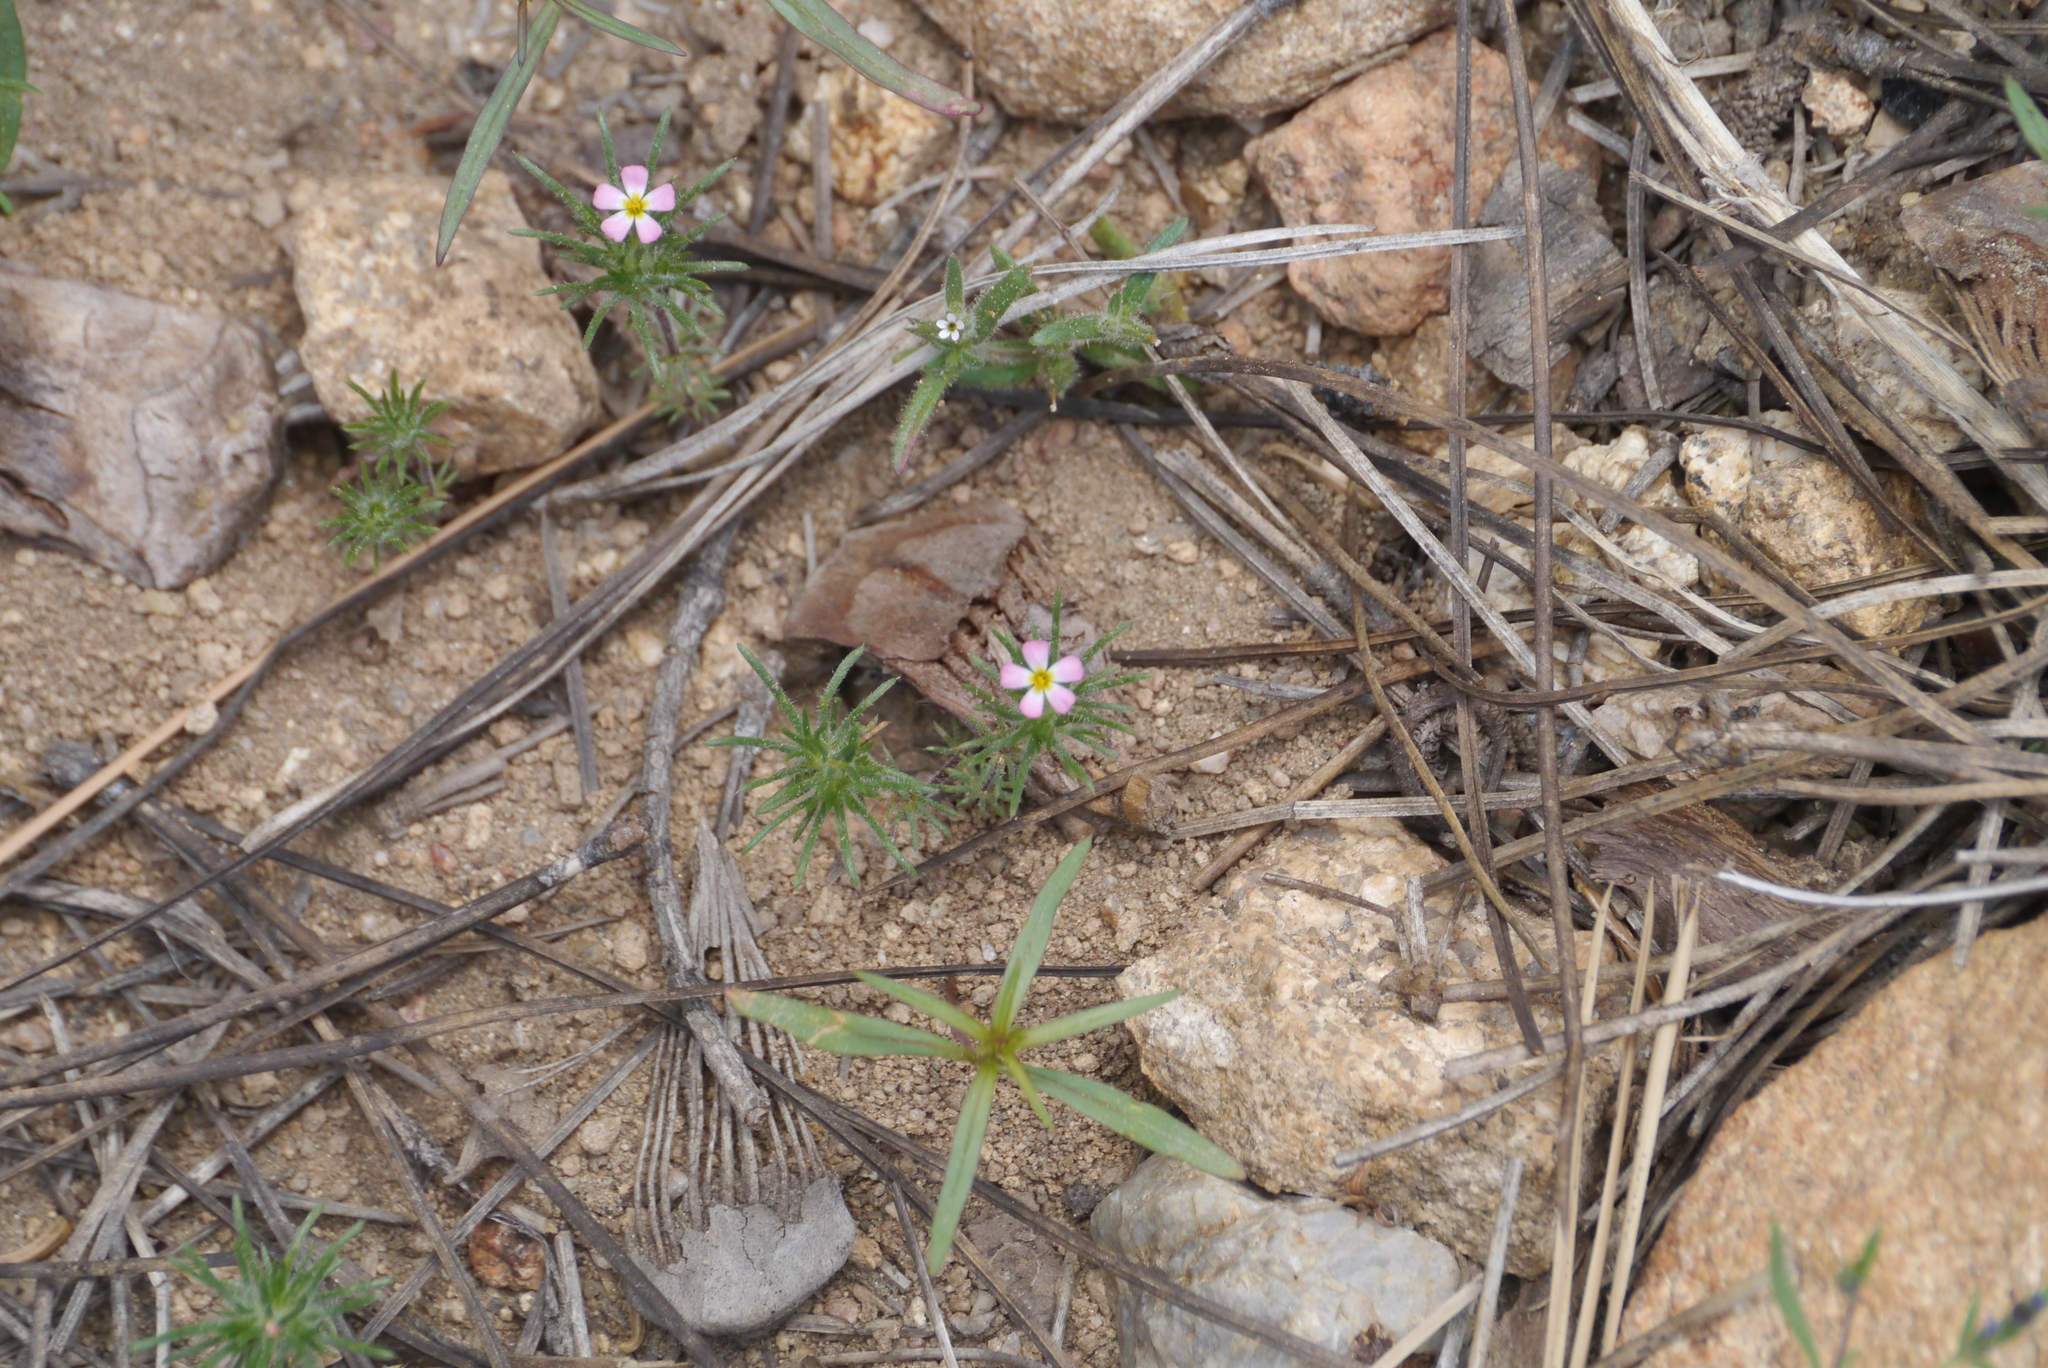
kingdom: Plantae
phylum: Tracheophyta
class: Magnoliopsida
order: Ericales
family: Polemoniaceae
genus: Leptosiphon
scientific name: Leptosiphon ciliatus
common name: Whiskerbrush
